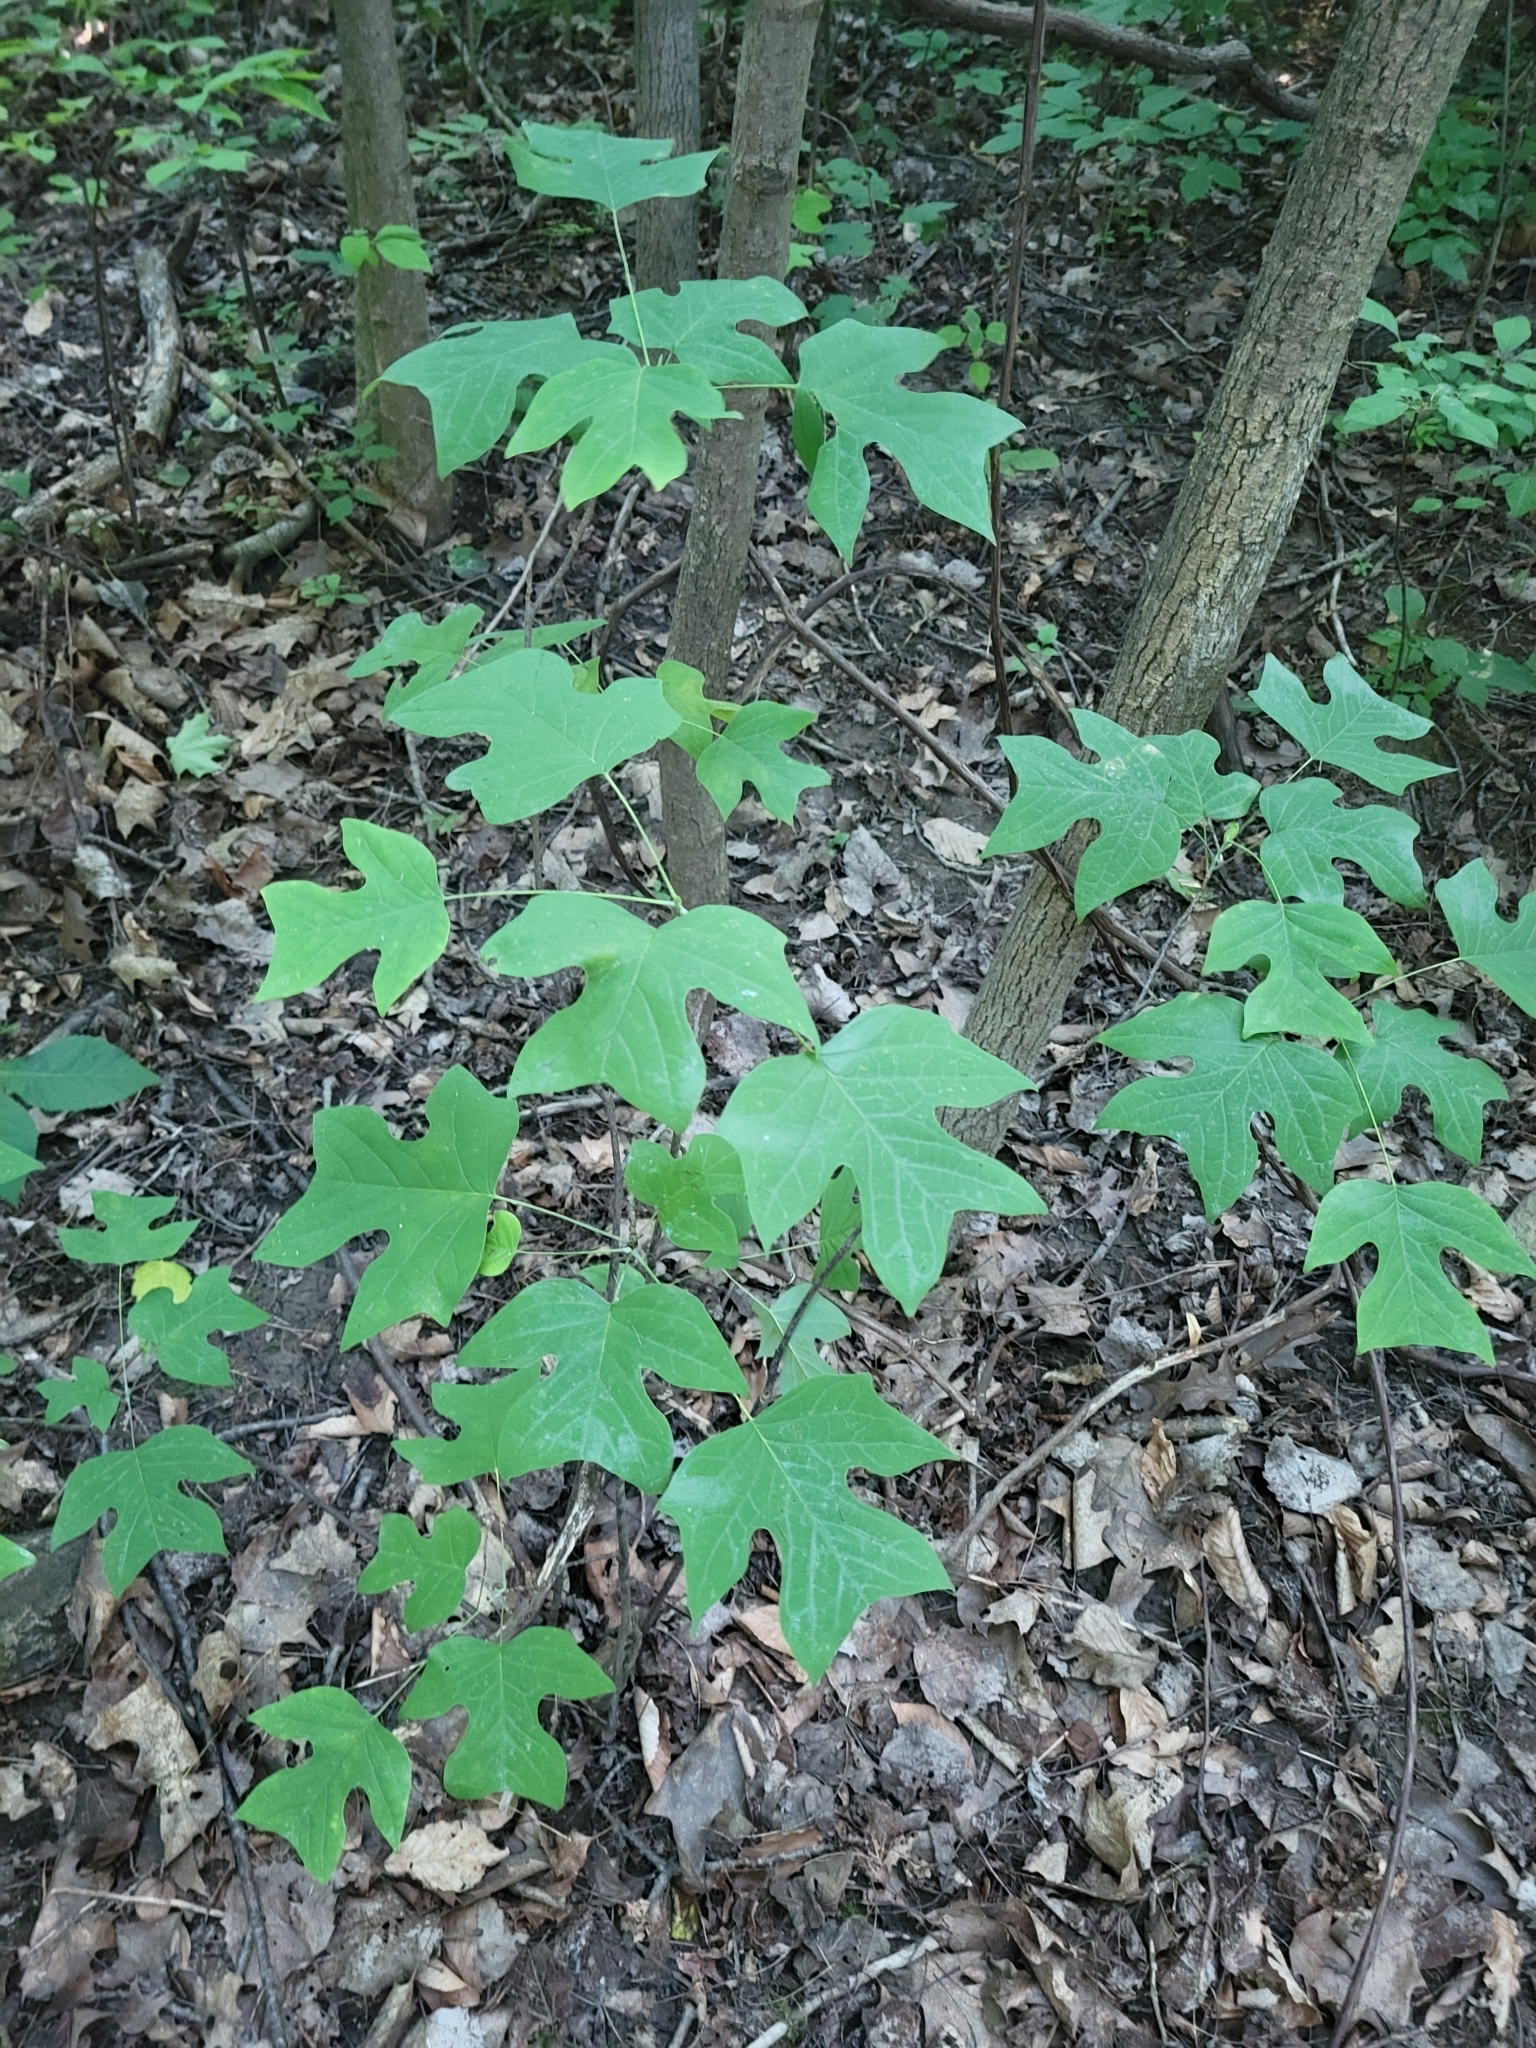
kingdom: Plantae
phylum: Tracheophyta
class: Magnoliopsida
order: Magnoliales
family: Magnoliaceae
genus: Liriodendron
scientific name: Liriodendron tulipifera
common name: Tulip tree
